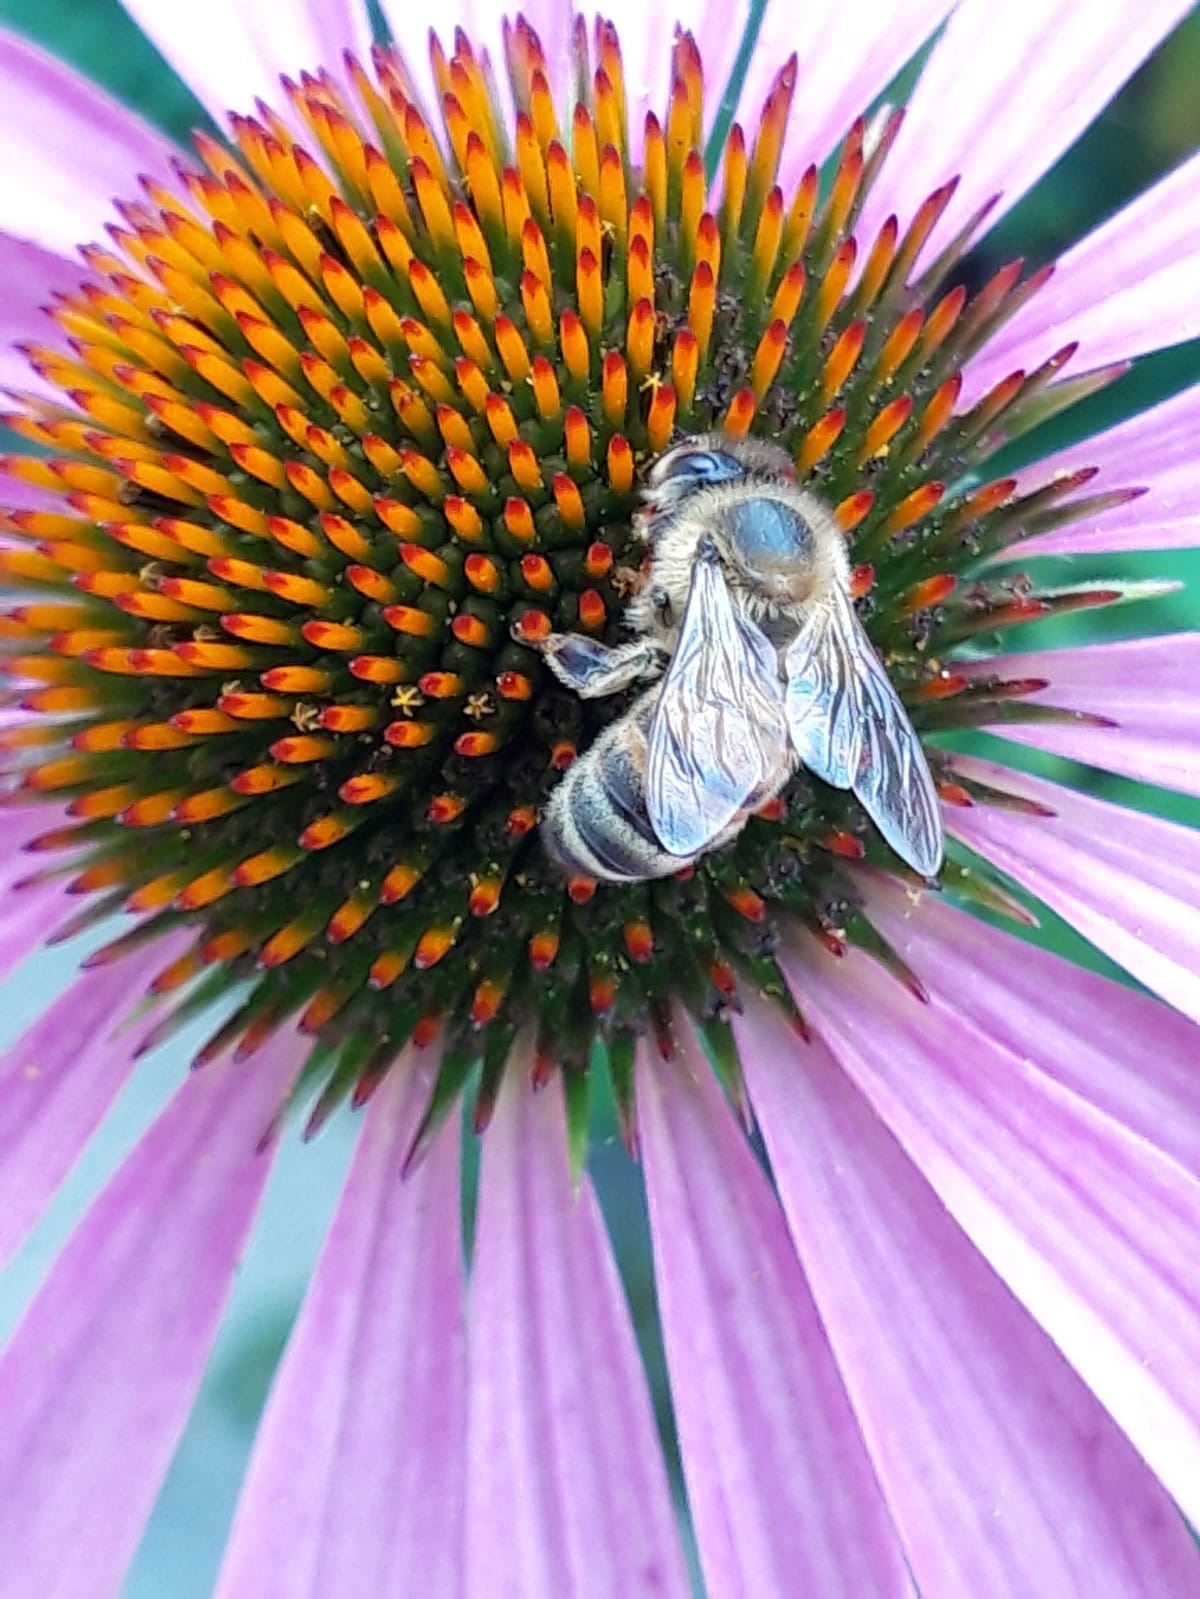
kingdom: Animalia
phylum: Arthropoda
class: Insecta
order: Hymenoptera
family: Apidae
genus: Apis
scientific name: Apis mellifera
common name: Honey bee
